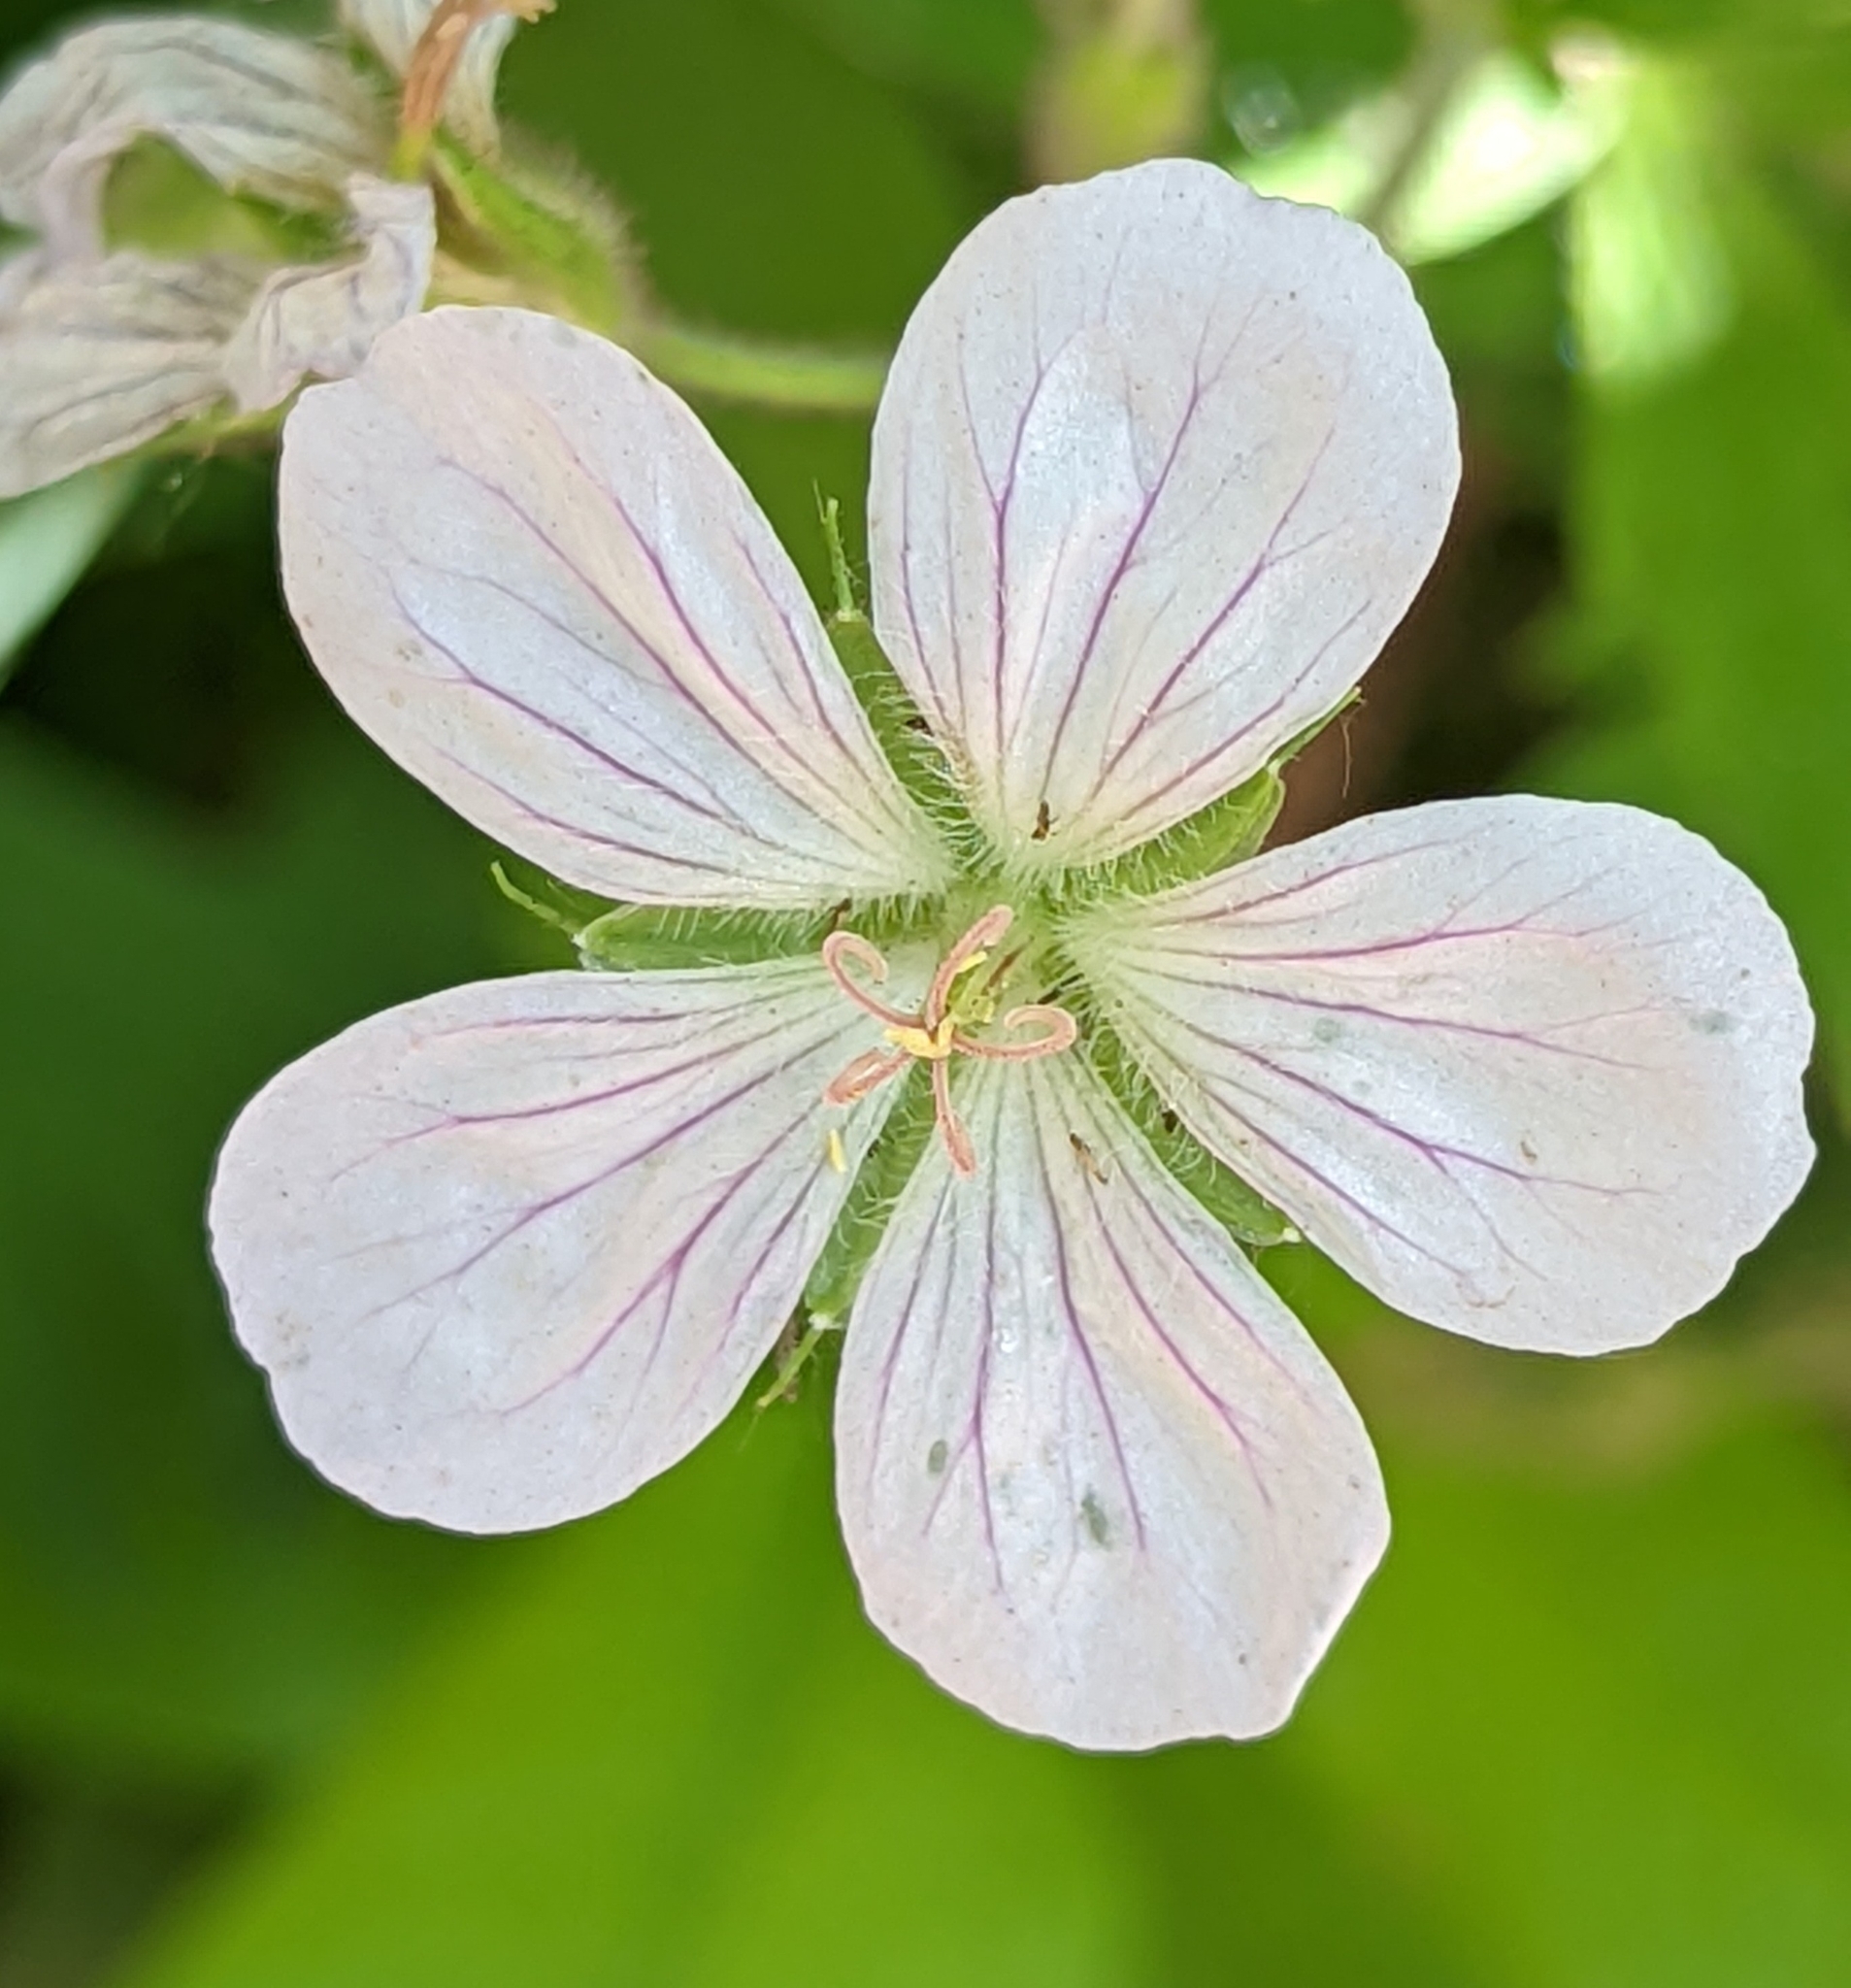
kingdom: Plantae
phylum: Tracheophyta
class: Magnoliopsida
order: Geraniales
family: Geraniaceae
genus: Geranium
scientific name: Geranium richardsonii
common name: Richardson's crane's-bill
